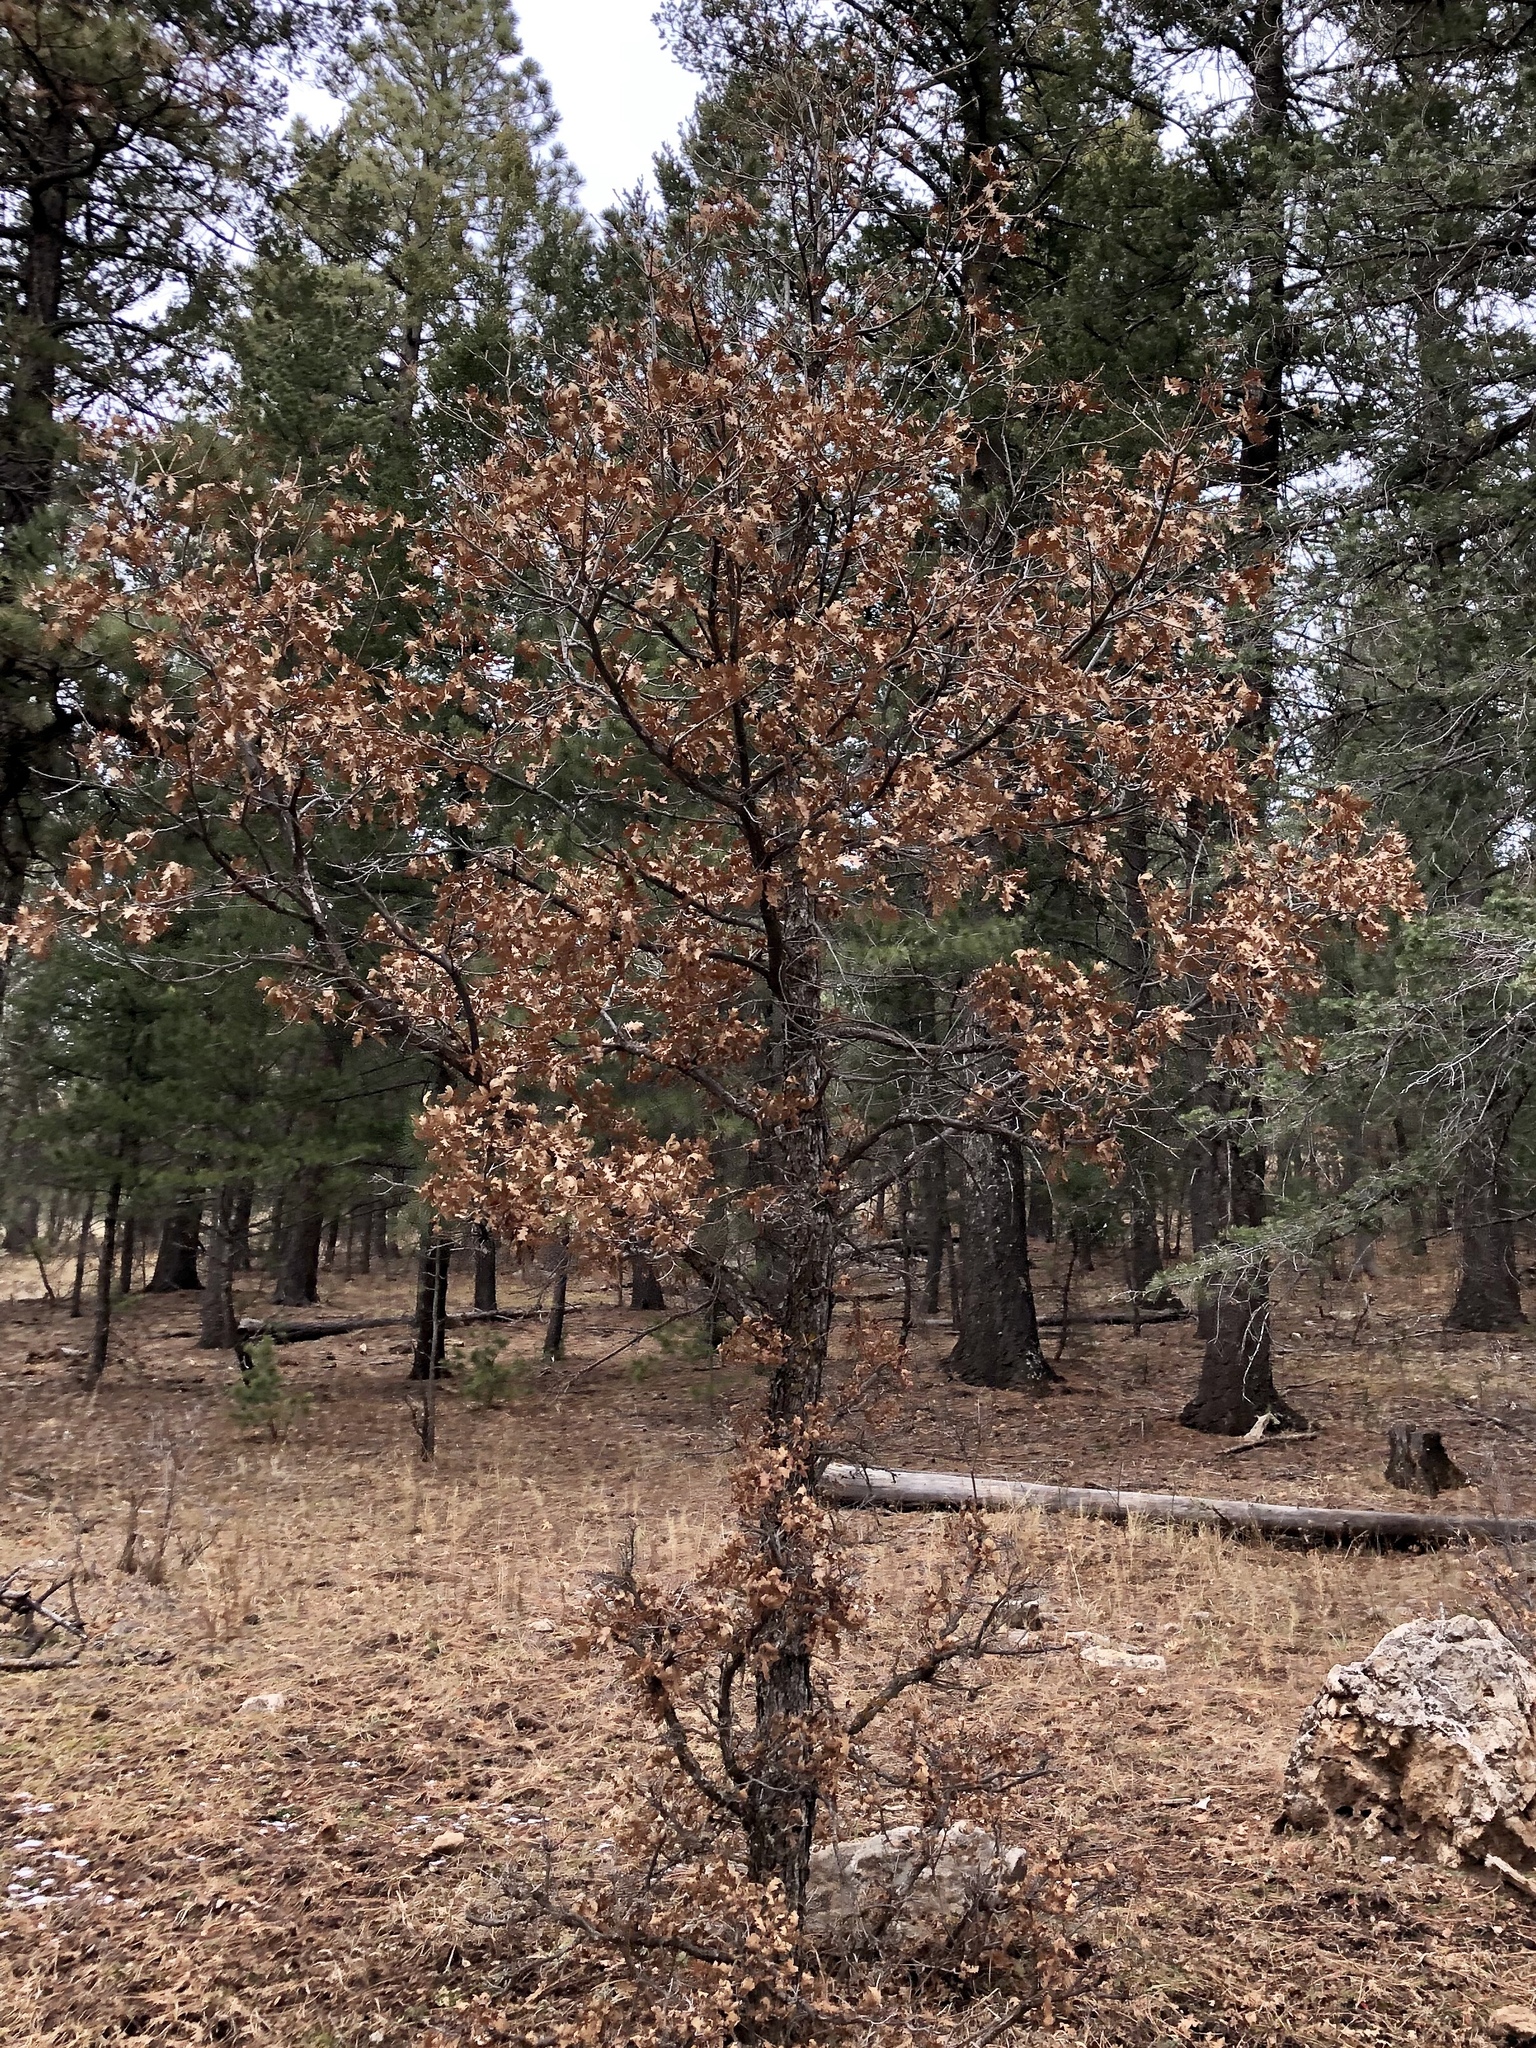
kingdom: Plantae
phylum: Tracheophyta
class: Magnoliopsida
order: Fagales
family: Fagaceae
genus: Quercus
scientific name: Quercus gambelii
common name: Gambel oak
